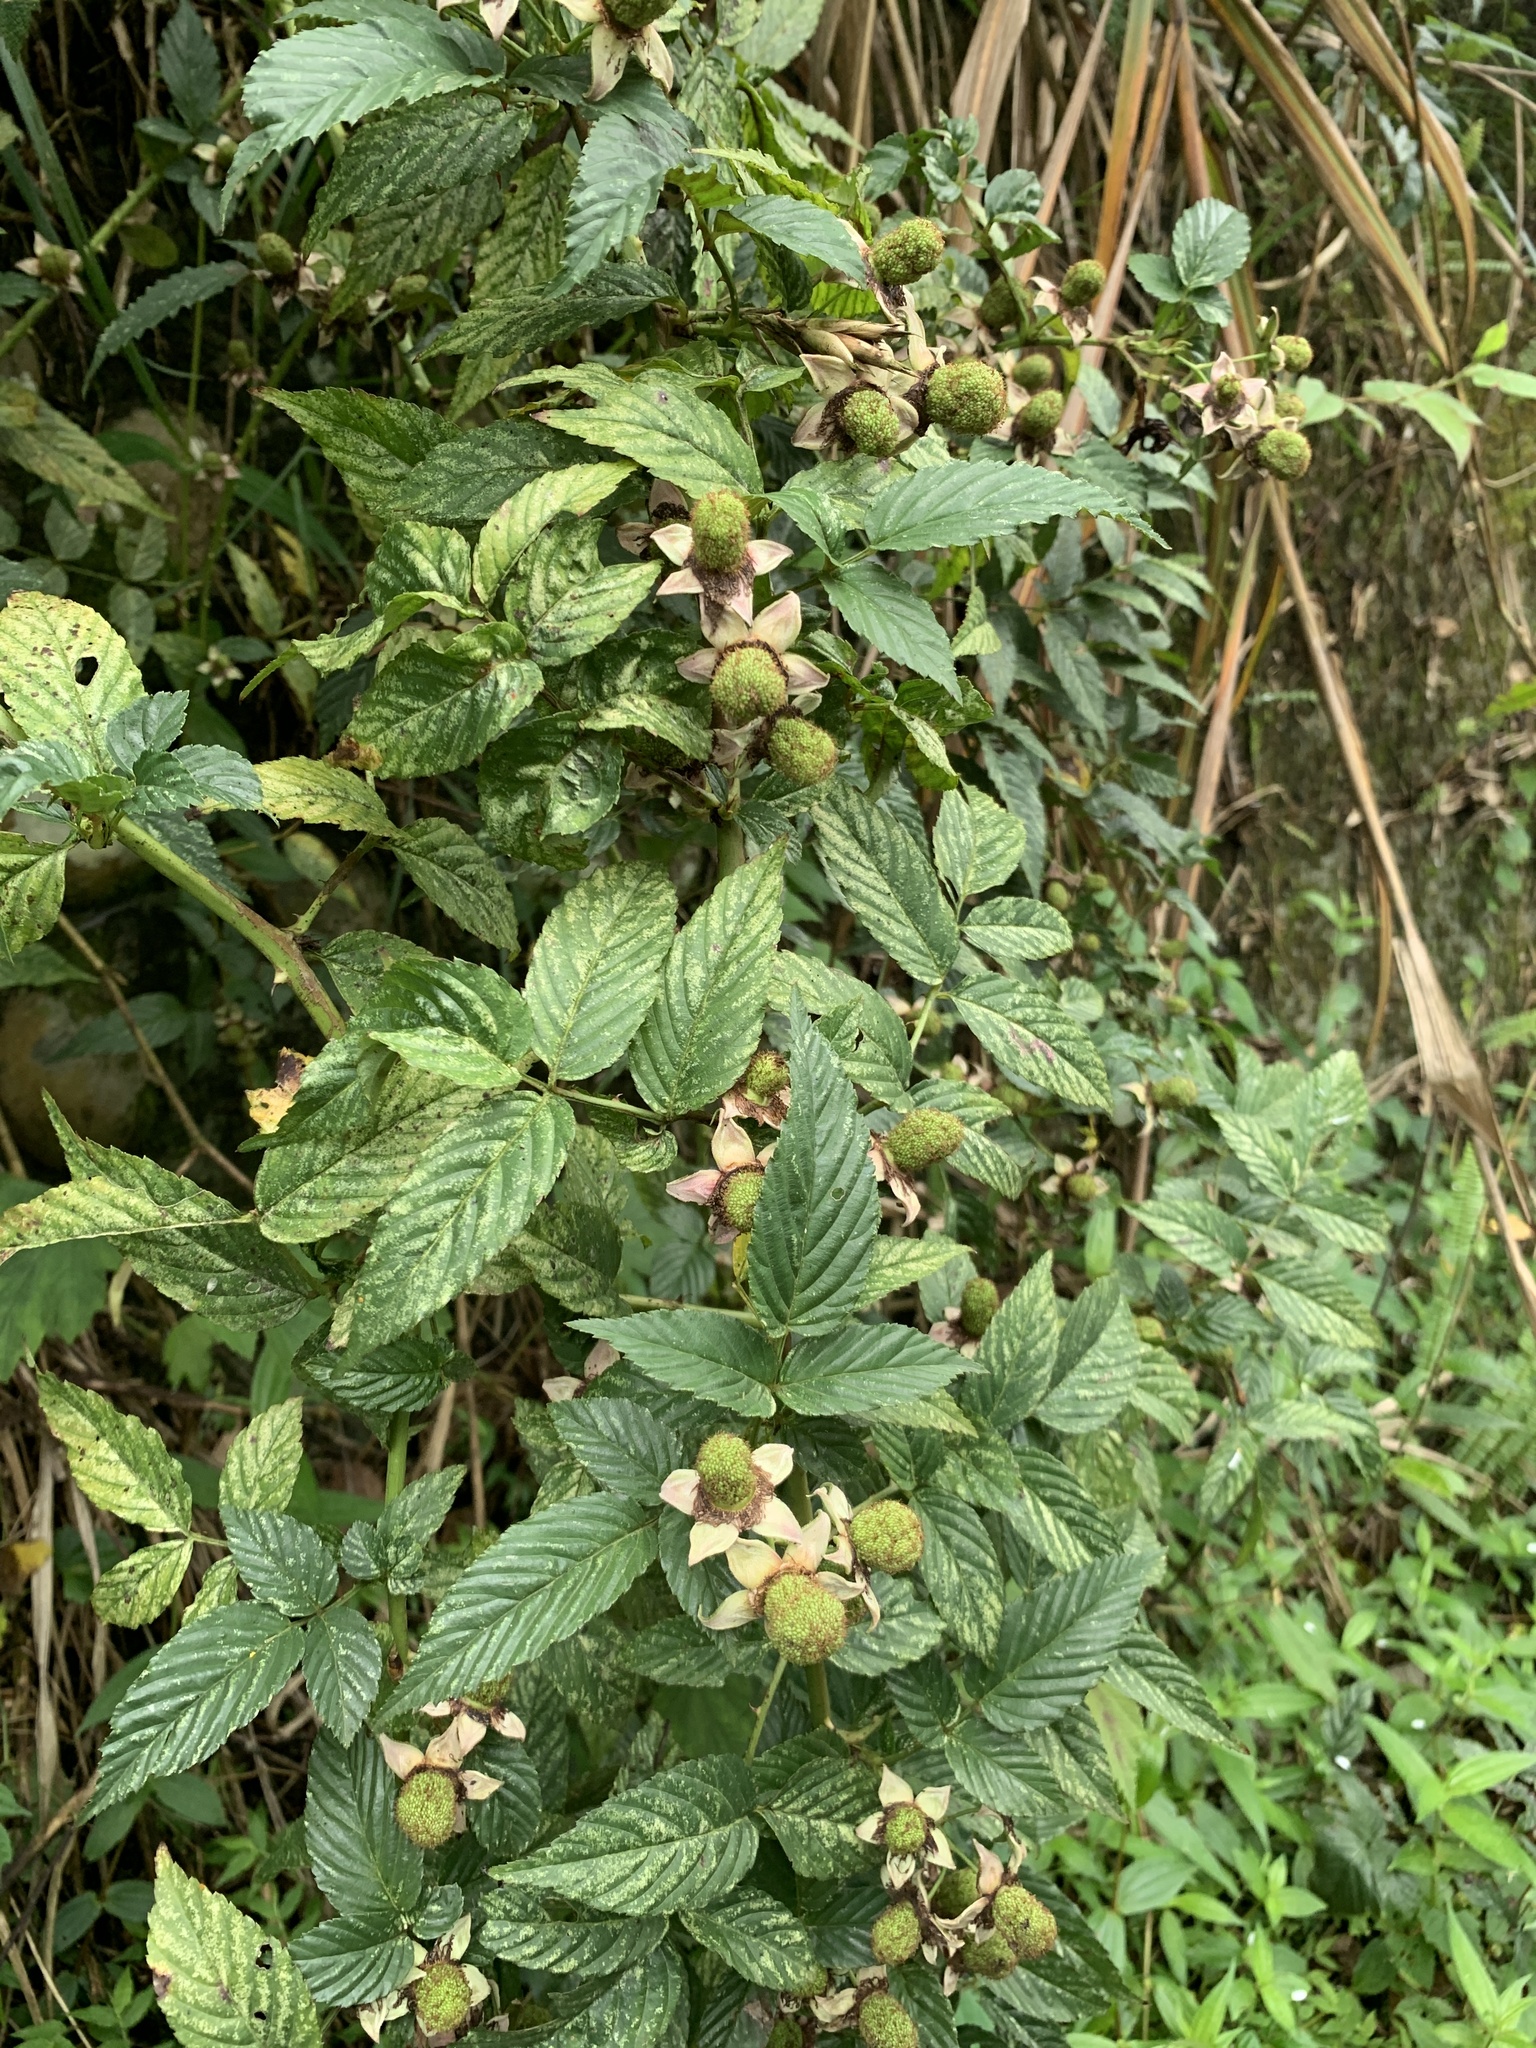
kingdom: Plantae
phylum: Tracheophyta
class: Magnoliopsida
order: Rosales
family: Rosaceae
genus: Rubus
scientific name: Rubus fraxinifolius
